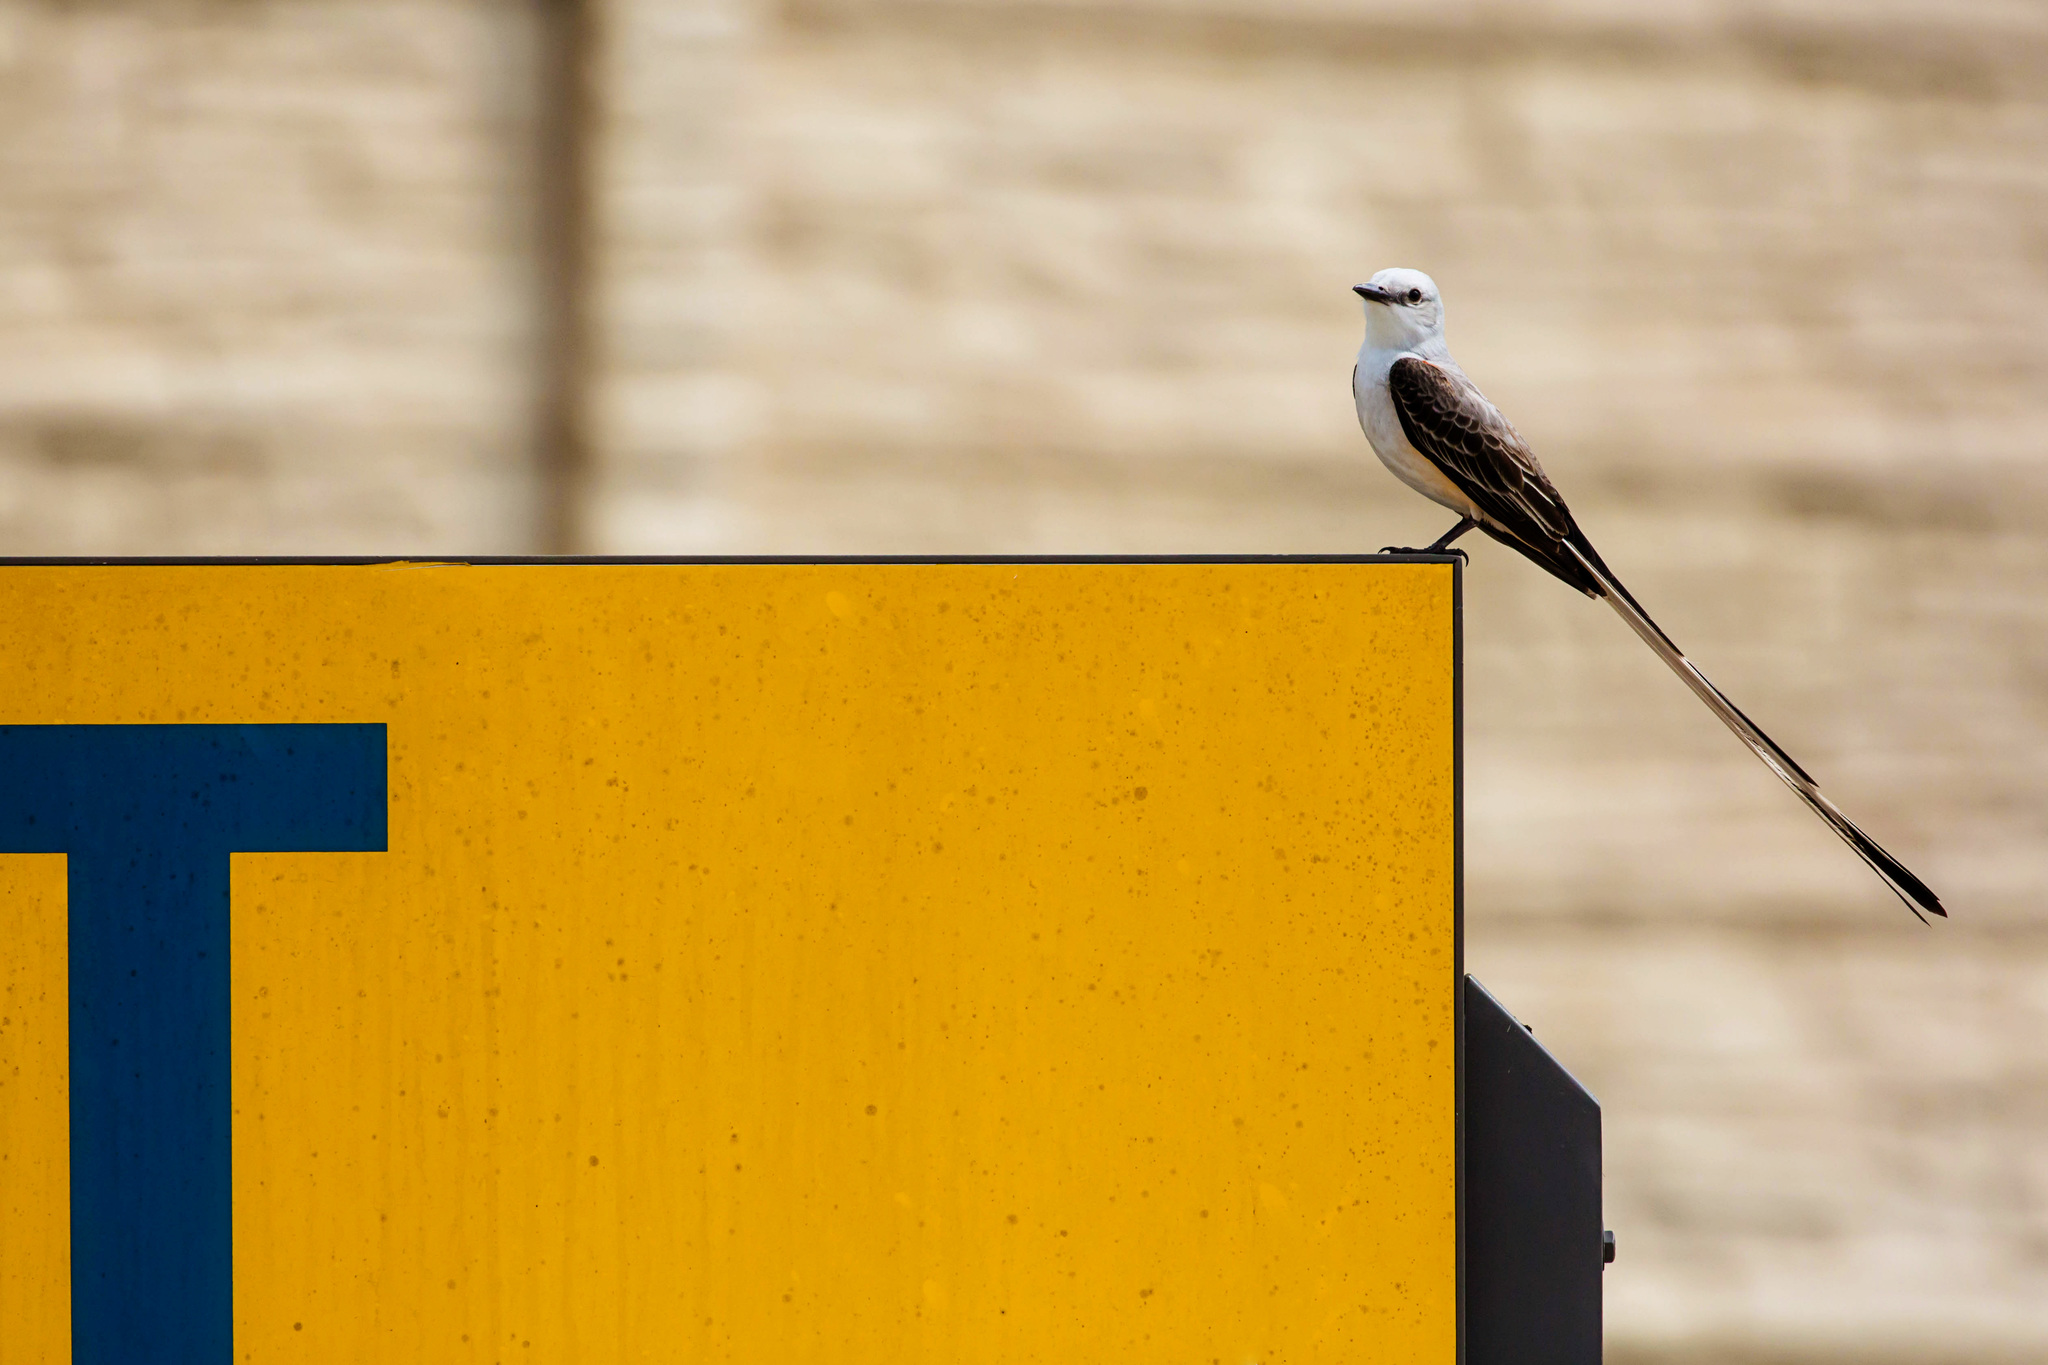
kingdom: Animalia
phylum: Chordata
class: Aves
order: Passeriformes
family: Tyrannidae
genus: Tyrannus
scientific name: Tyrannus forficatus
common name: Scissor-tailed flycatcher
